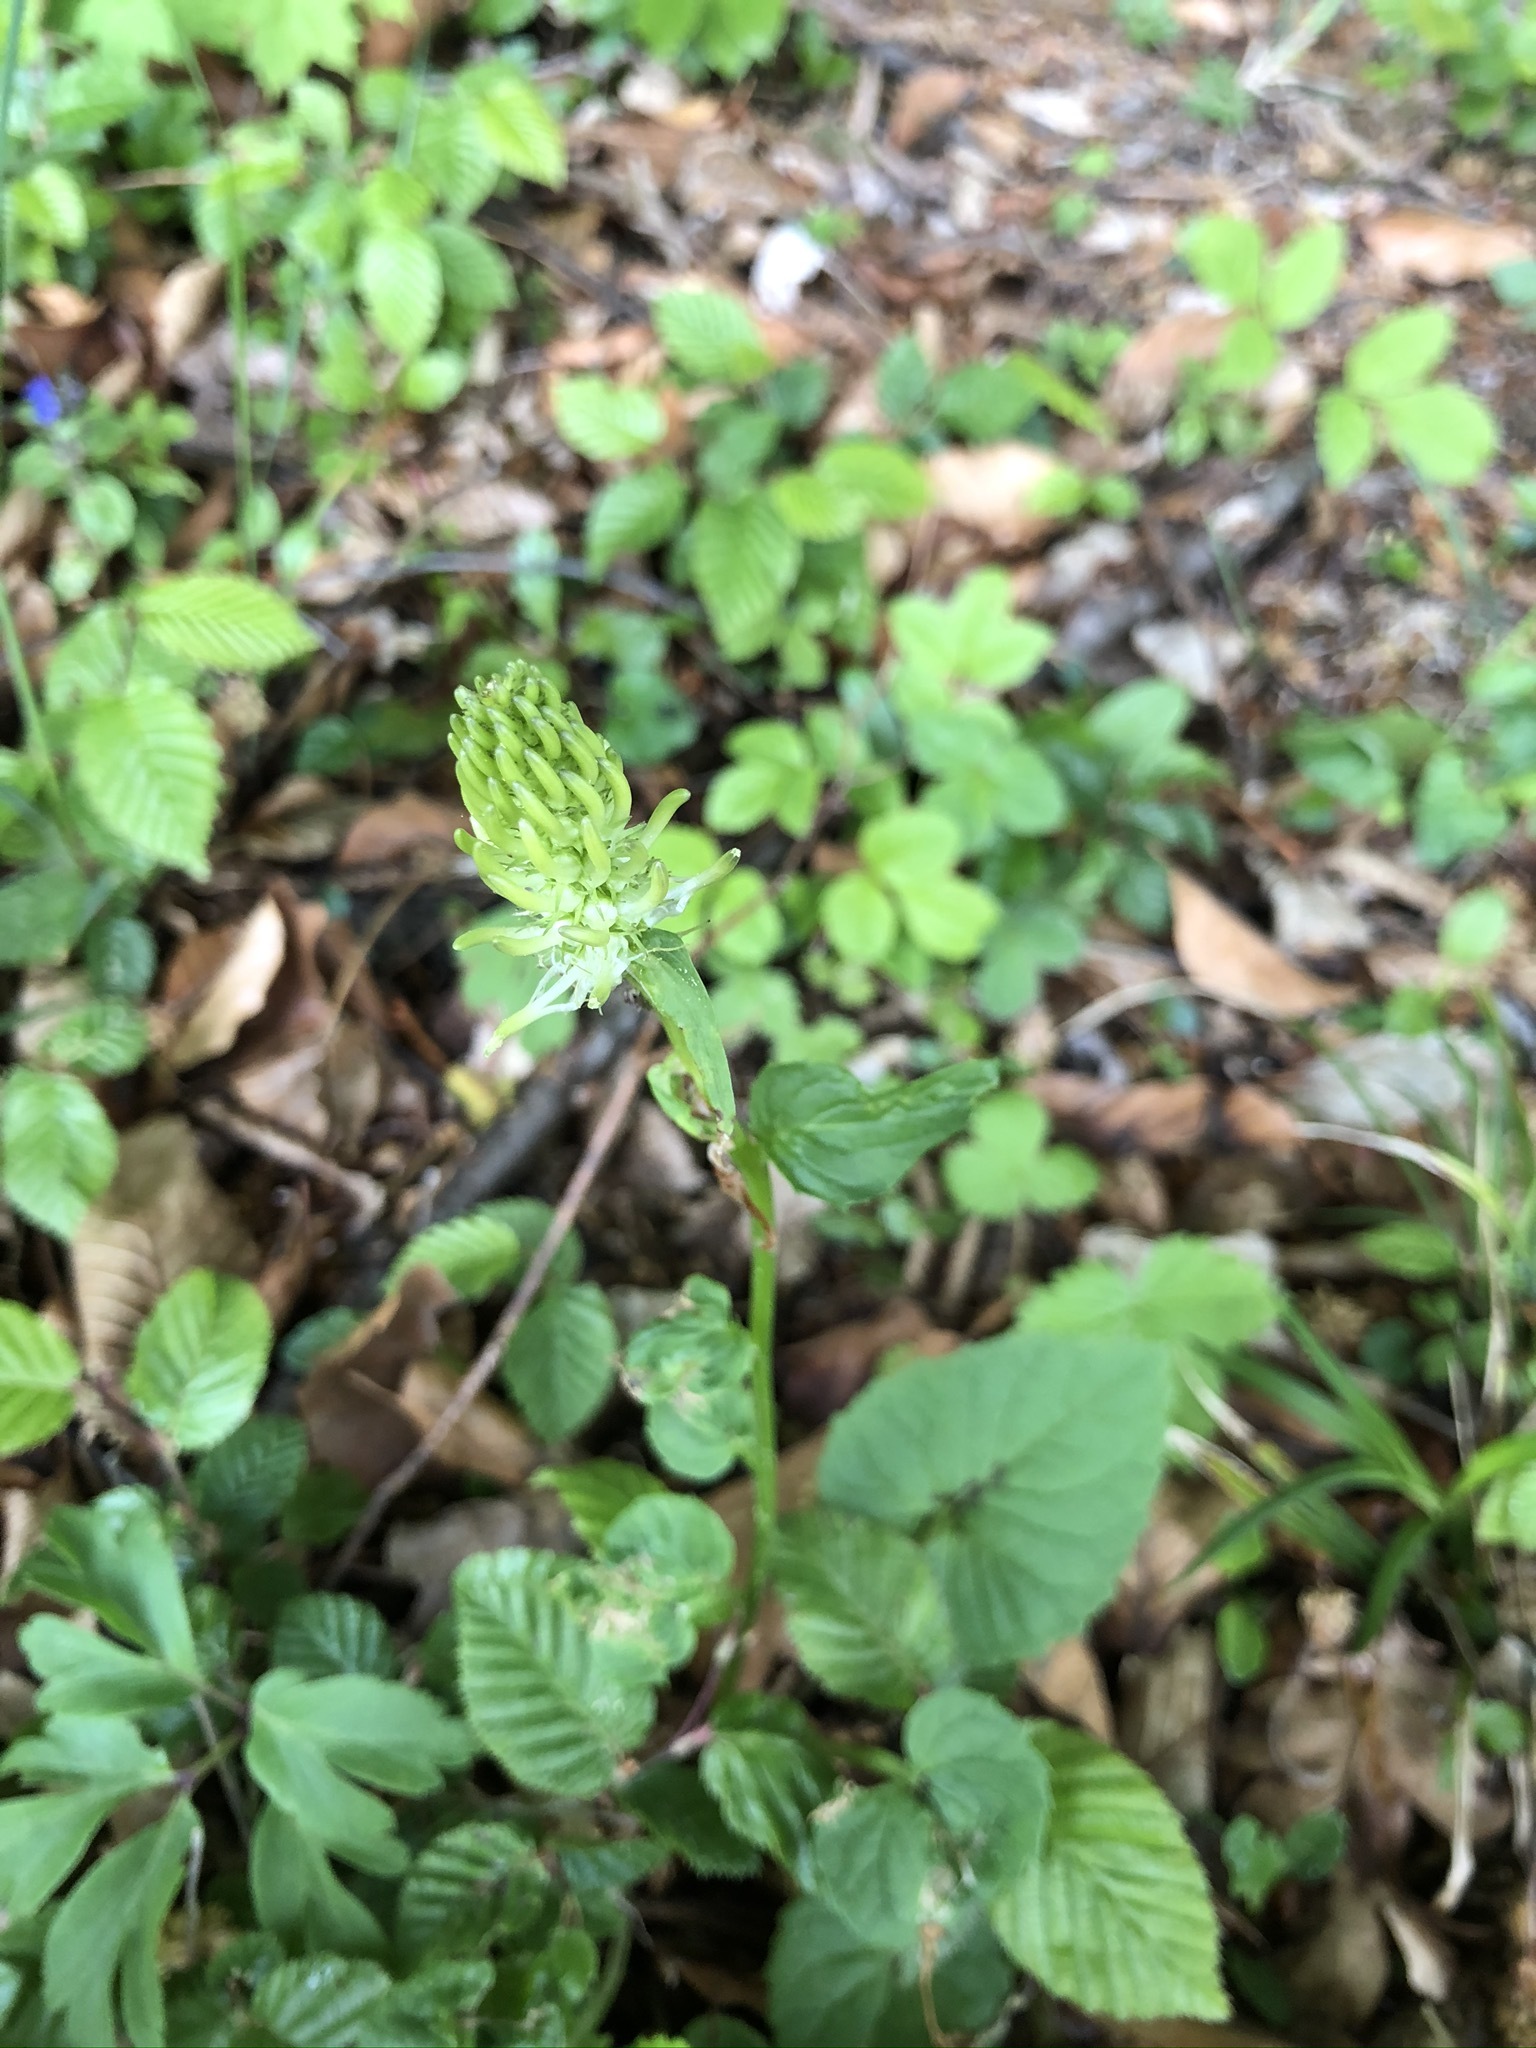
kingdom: Plantae
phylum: Tracheophyta
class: Magnoliopsida
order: Asterales
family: Campanulaceae
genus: Phyteuma
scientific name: Phyteuma spicatum
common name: Spiked rampion
